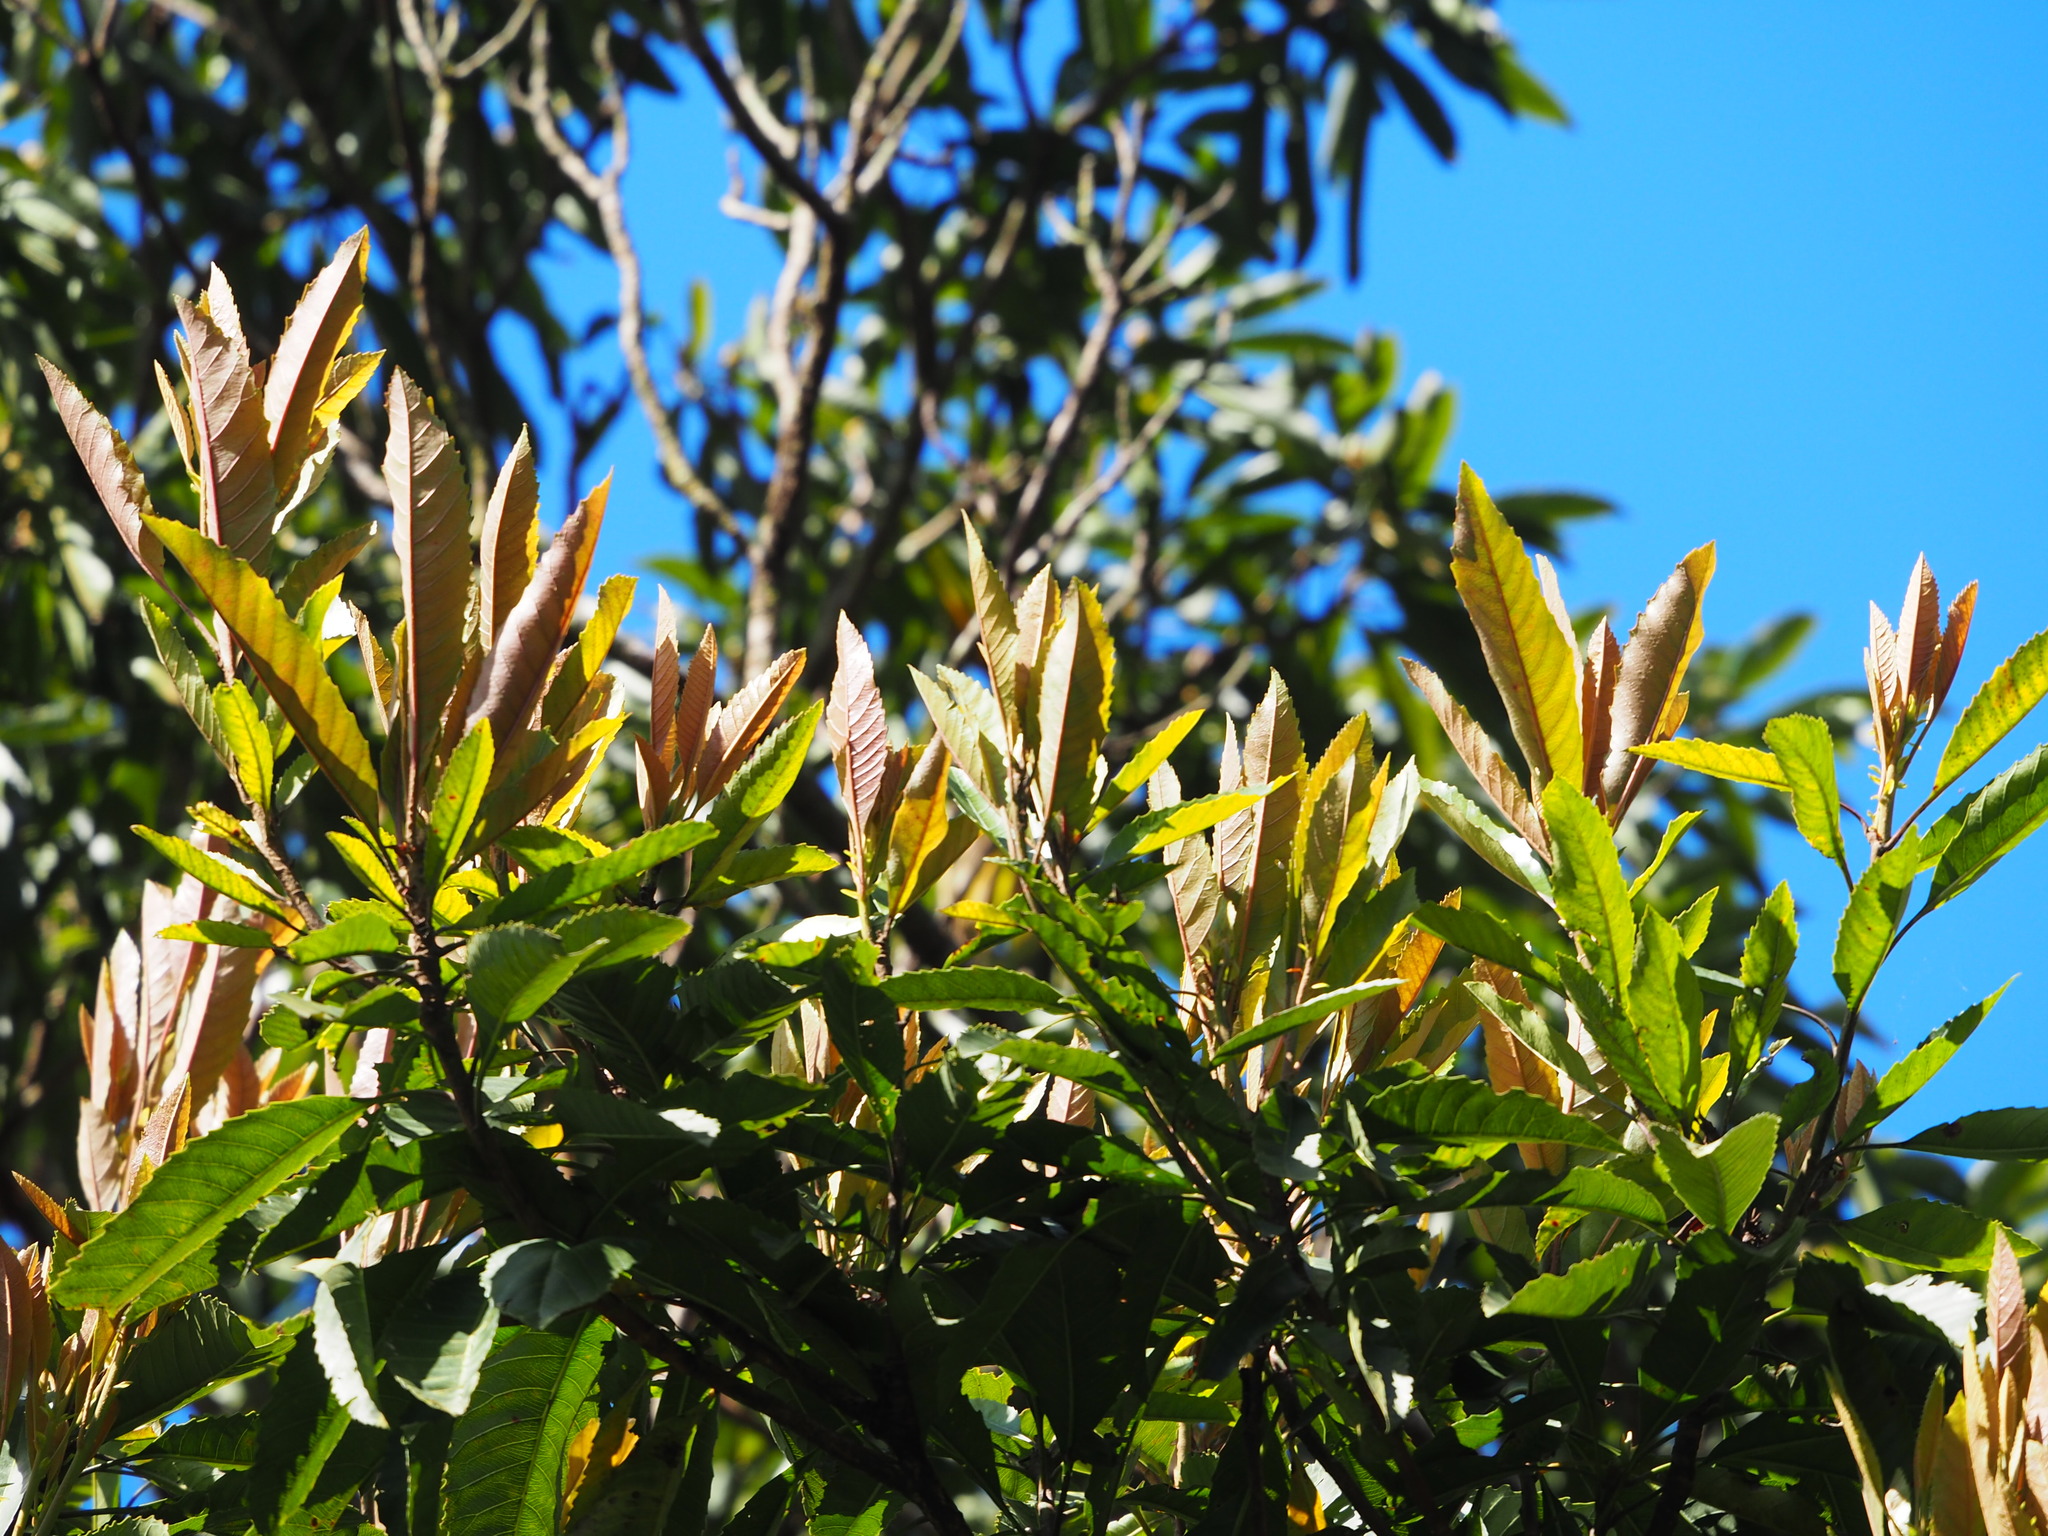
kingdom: Plantae
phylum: Tracheophyta
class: Magnoliopsida
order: Rosales
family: Rosaceae
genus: Rhaphiolepis
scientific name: Rhaphiolepis deflexa
